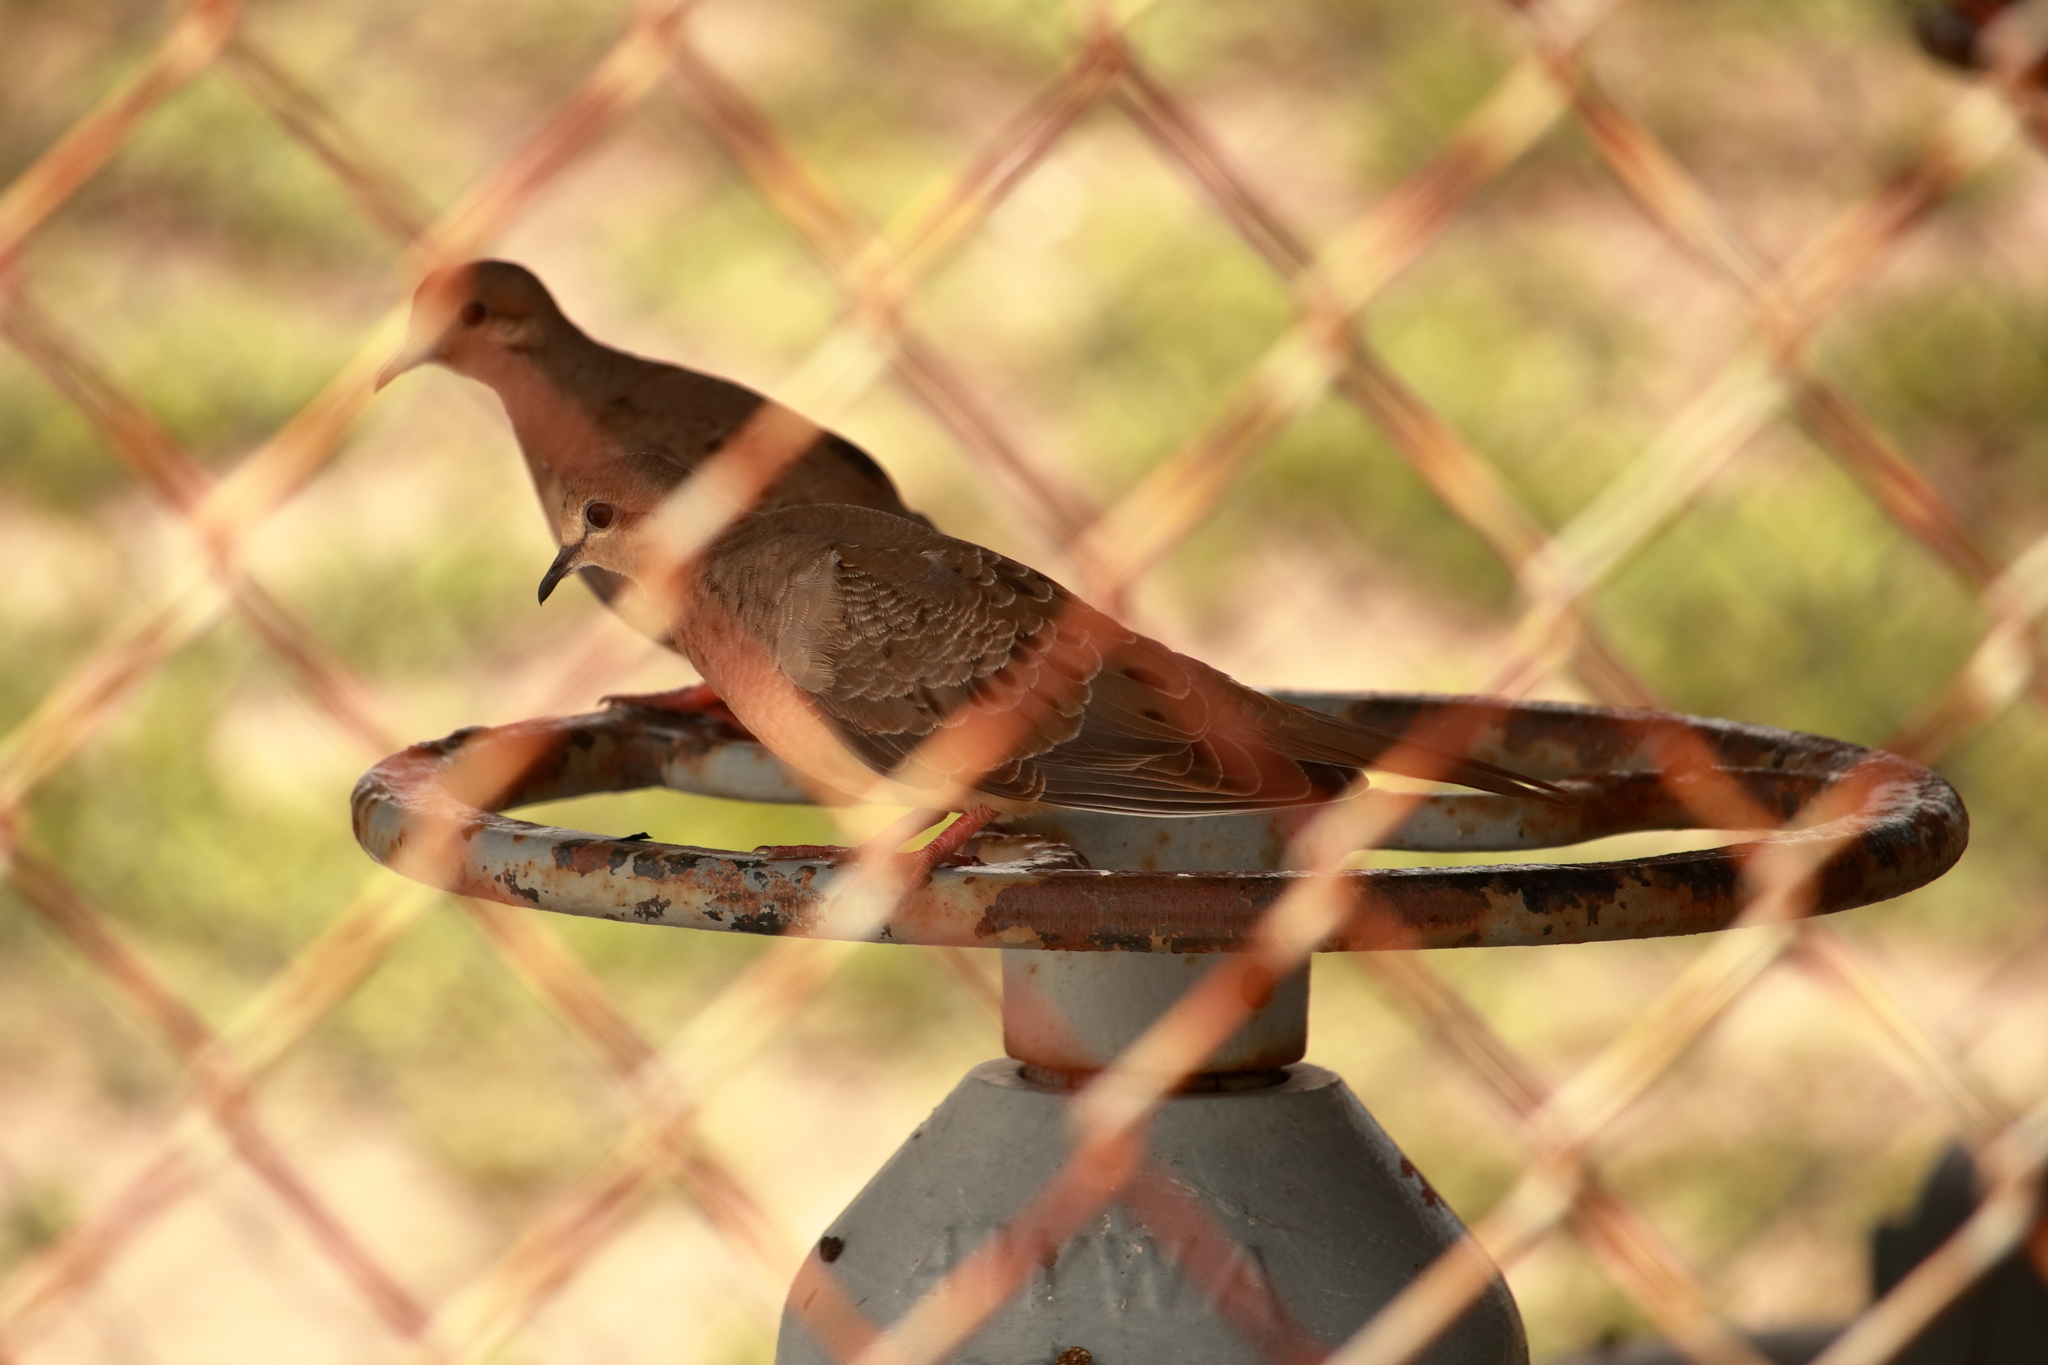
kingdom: Animalia
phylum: Chordata
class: Aves
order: Columbiformes
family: Columbidae
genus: Zenaida
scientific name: Zenaida macroura
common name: Mourning dove
